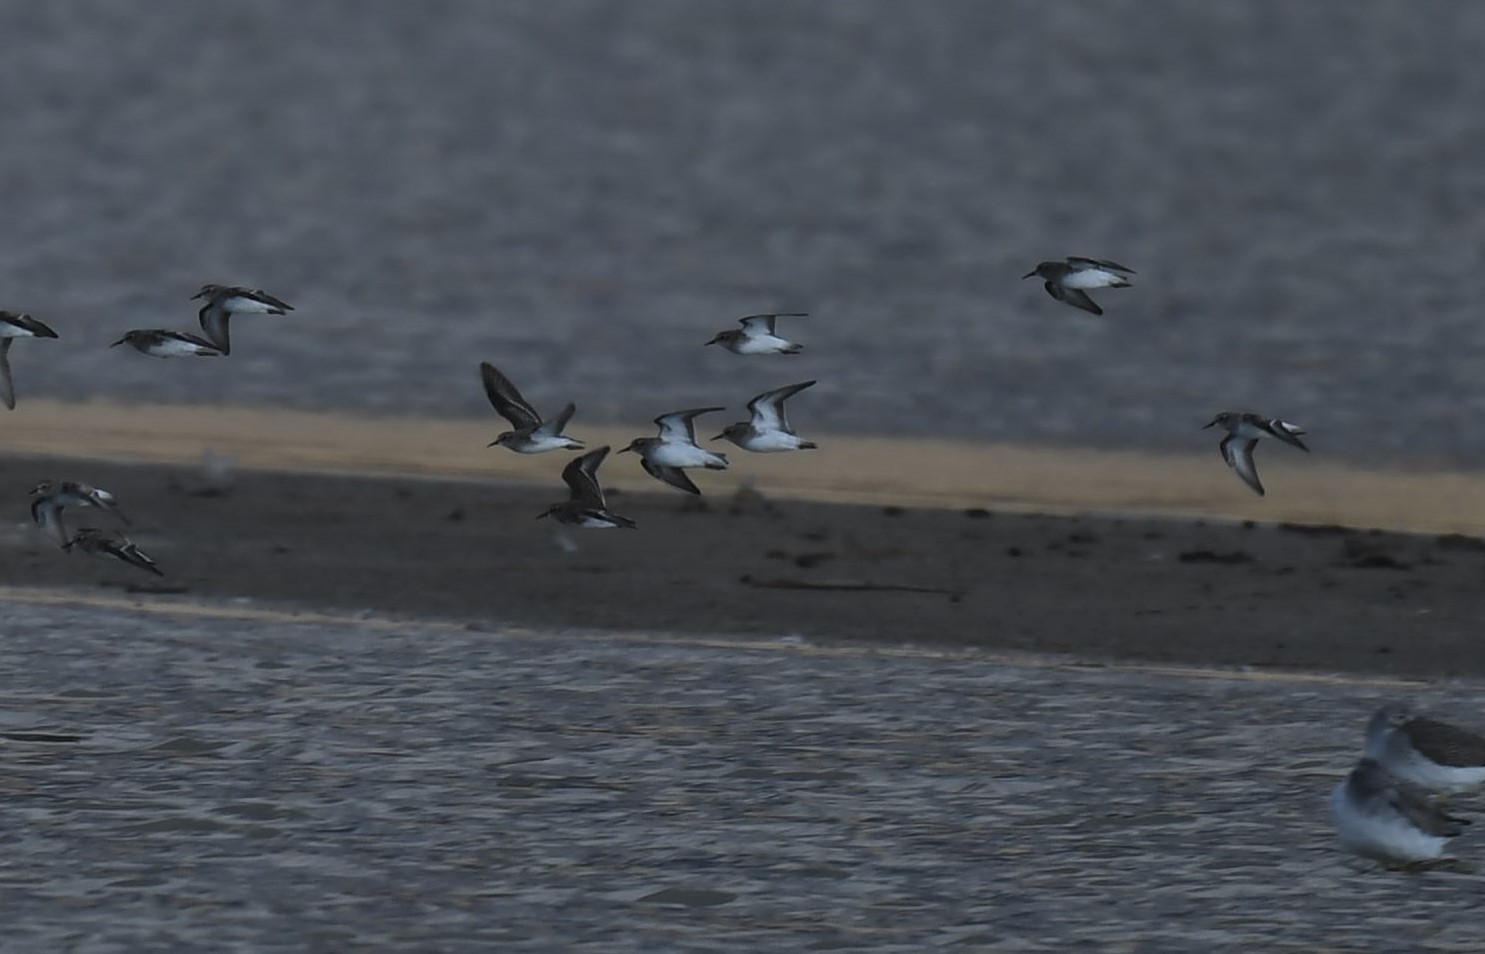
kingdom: Animalia
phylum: Chordata
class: Aves
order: Charadriiformes
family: Scolopacidae
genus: Calidris
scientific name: Calidris minutilla
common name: Least sandpiper
